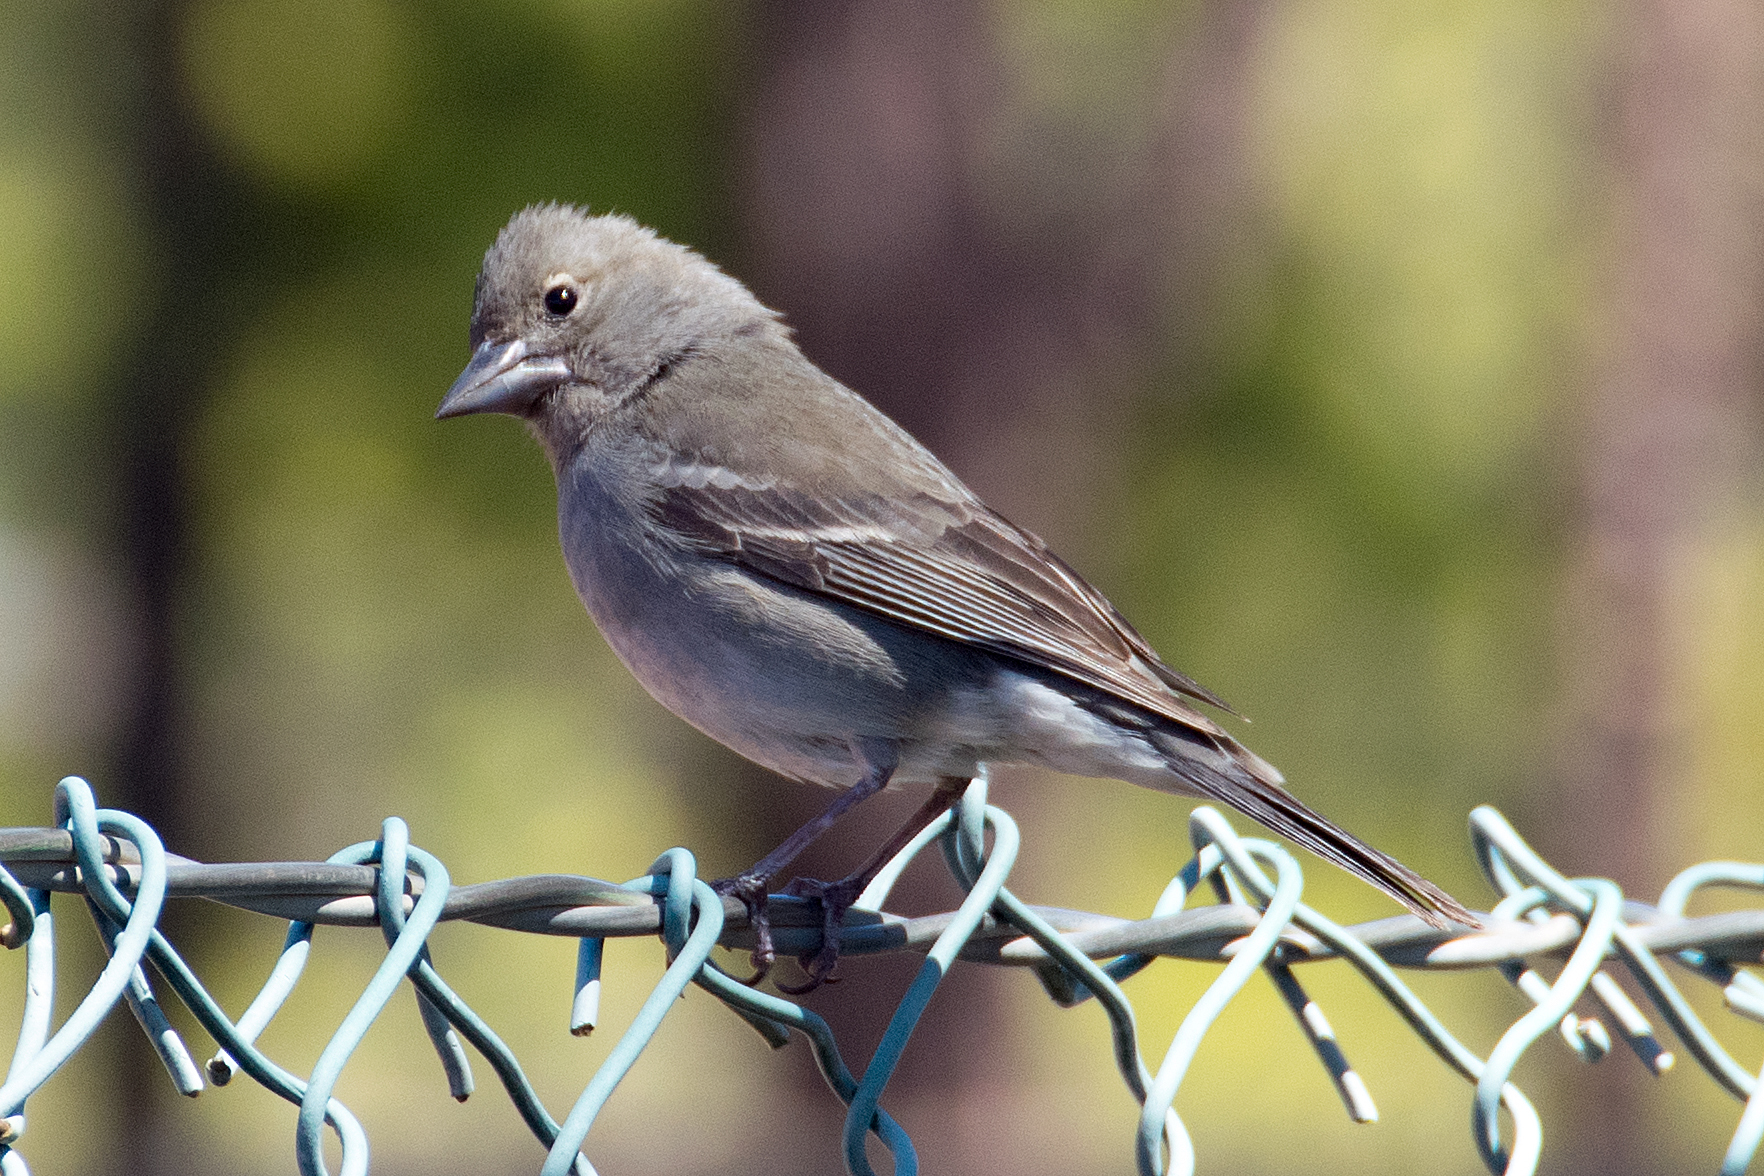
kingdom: Animalia
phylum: Chordata
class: Aves
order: Passeriformes
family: Fringillidae
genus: Fringilla
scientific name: Fringilla teydea
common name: Blue chaffinch
